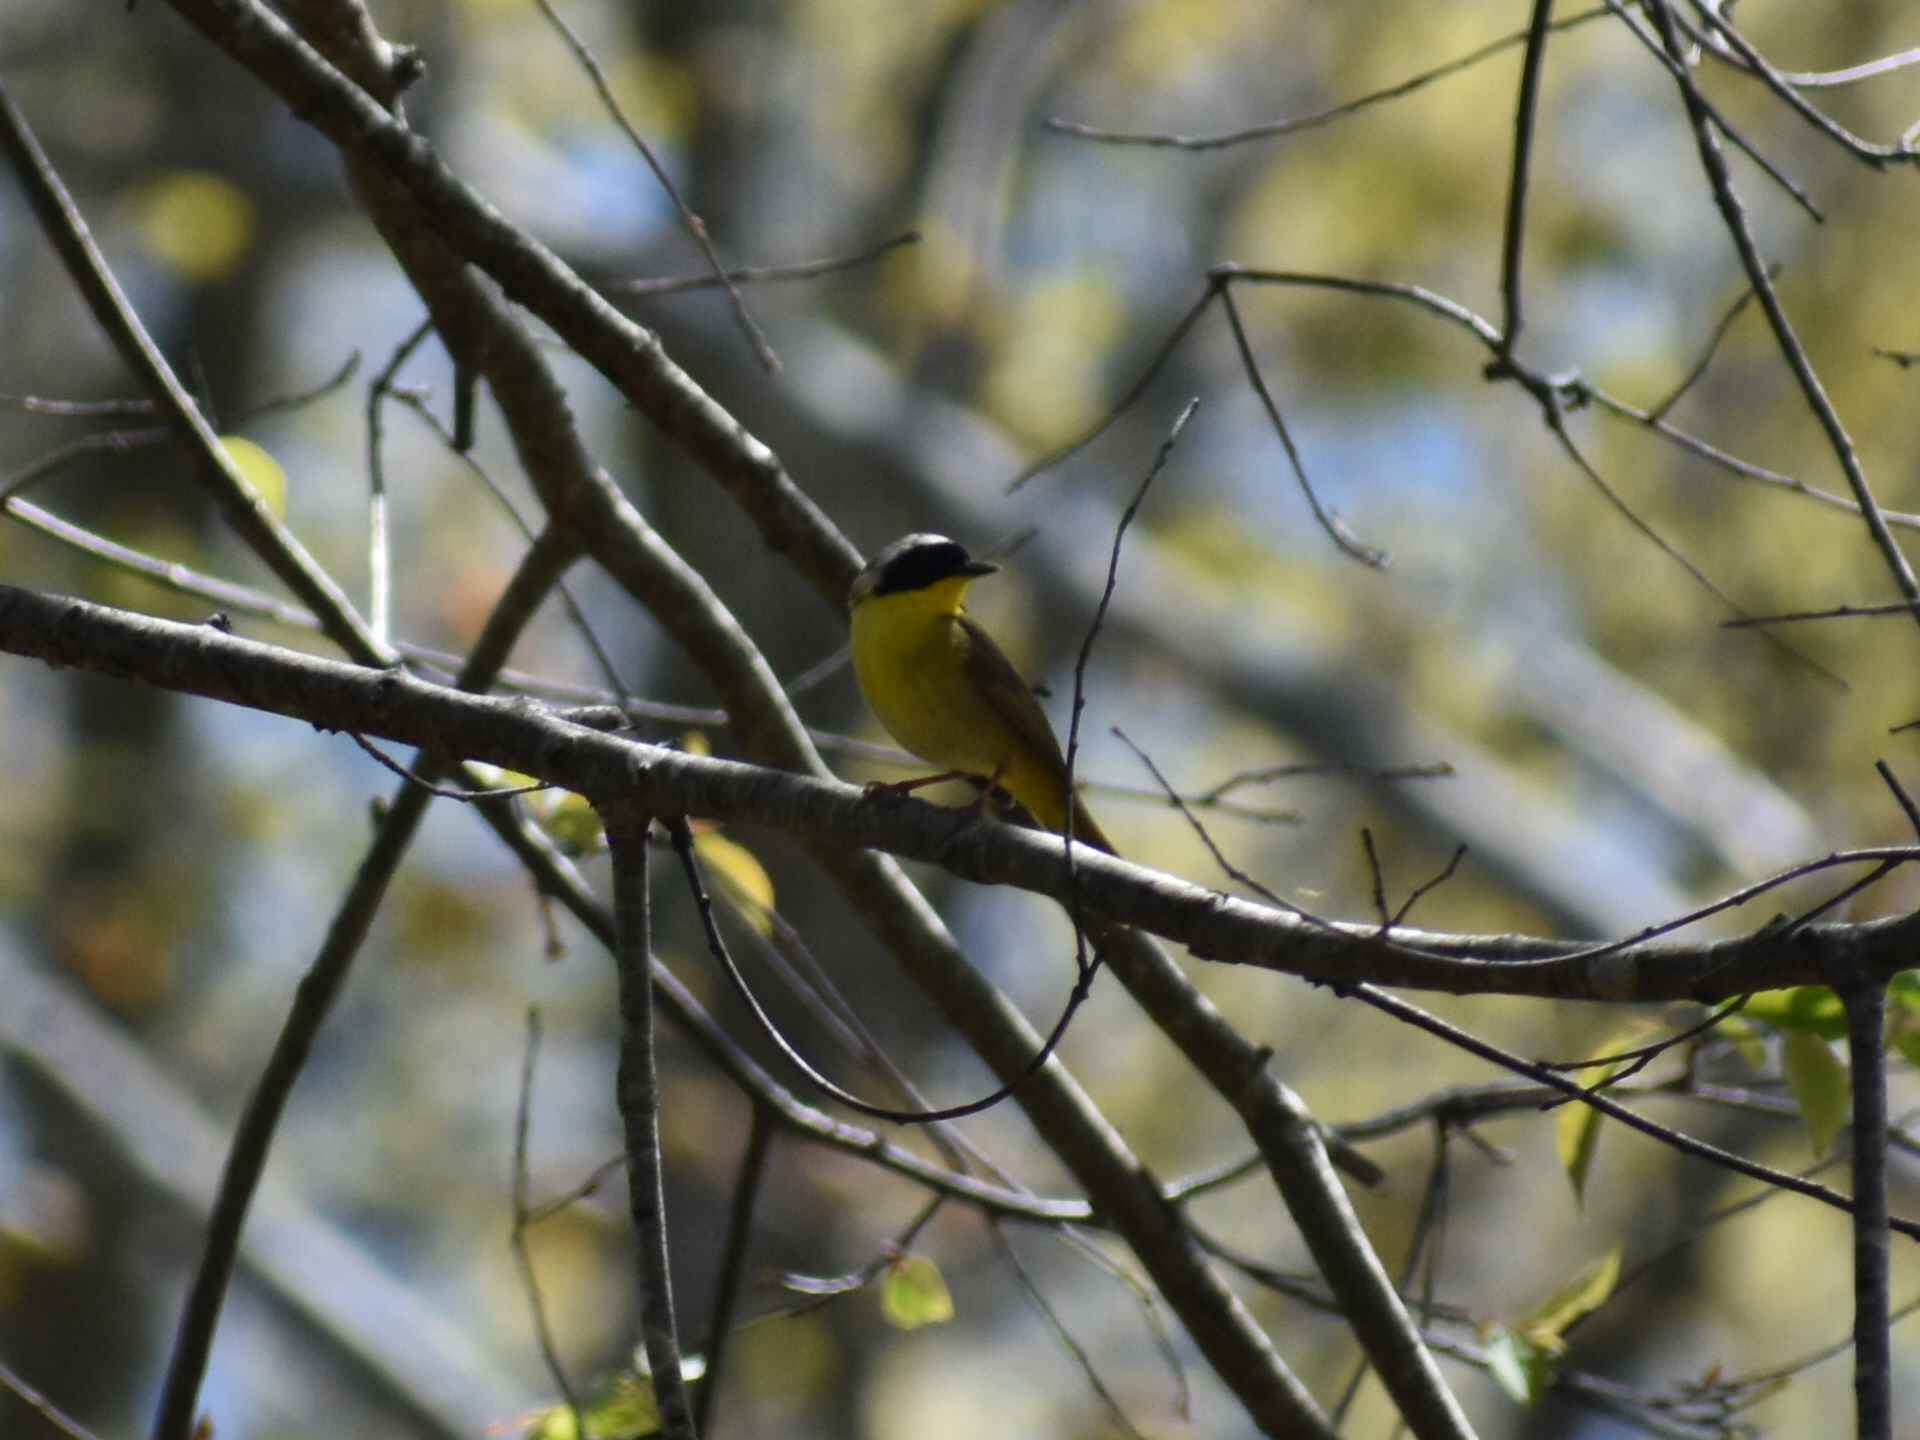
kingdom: Animalia
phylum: Chordata
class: Aves
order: Passeriformes
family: Parulidae
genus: Geothlypis
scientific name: Geothlypis trichas
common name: Common yellowthroat
